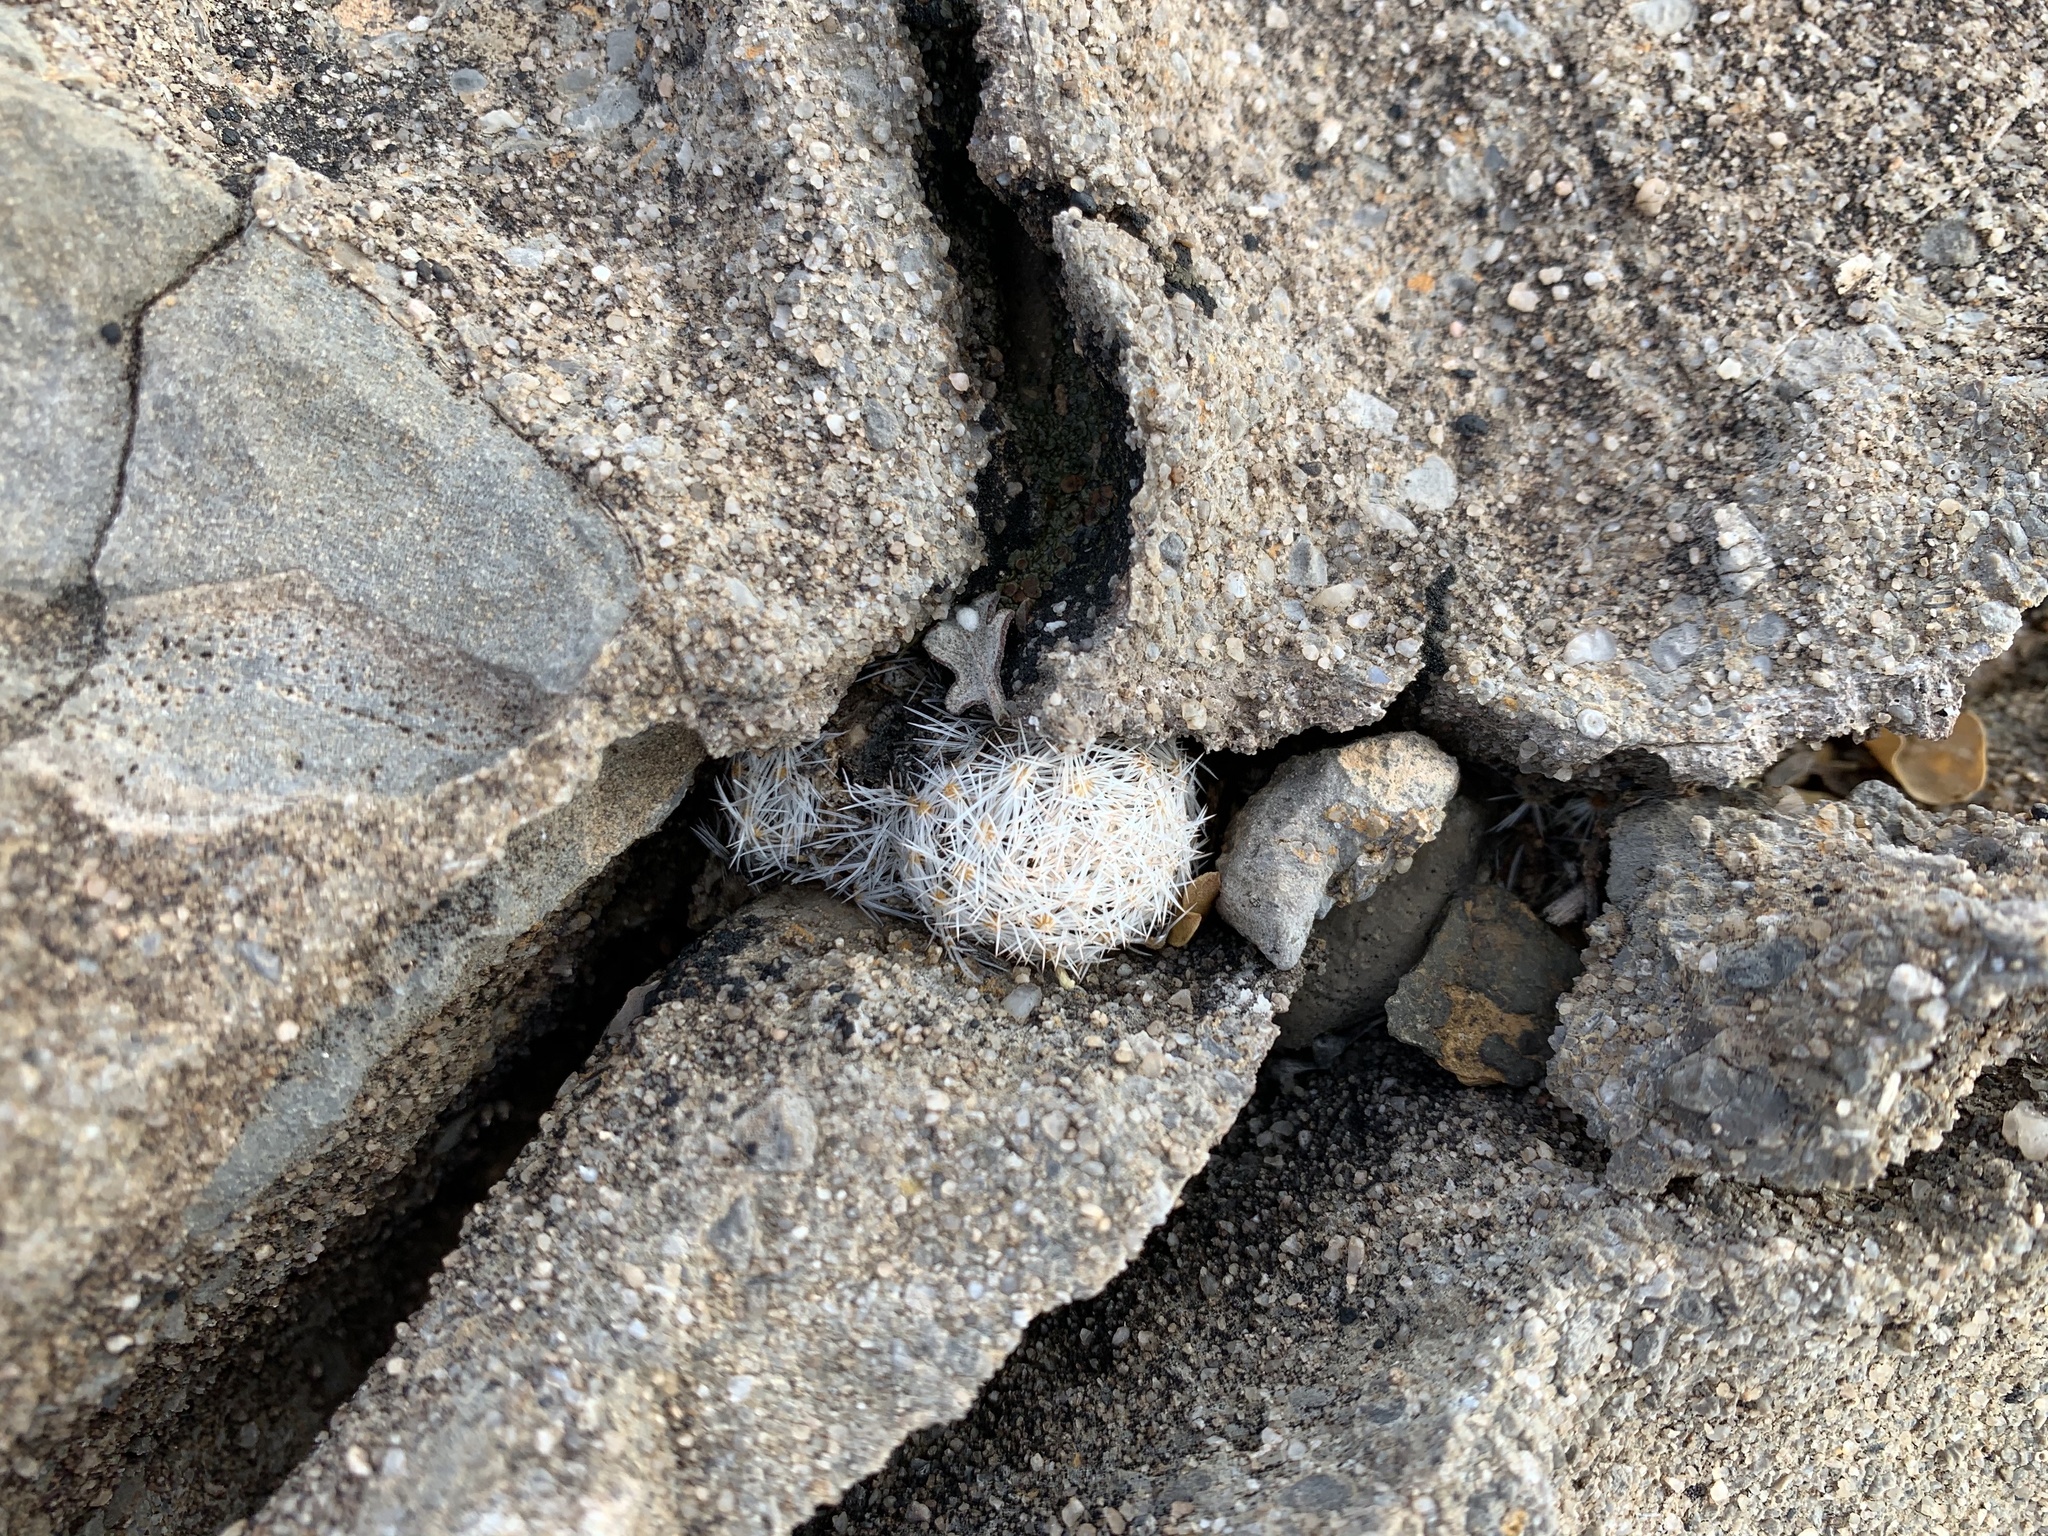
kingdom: Plantae
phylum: Tracheophyta
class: Magnoliopsida
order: Caryophyllales
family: Cactaceae
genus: Mammillaria
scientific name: Mammillaria lasiacantha
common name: Lace-spine nipple cactus
